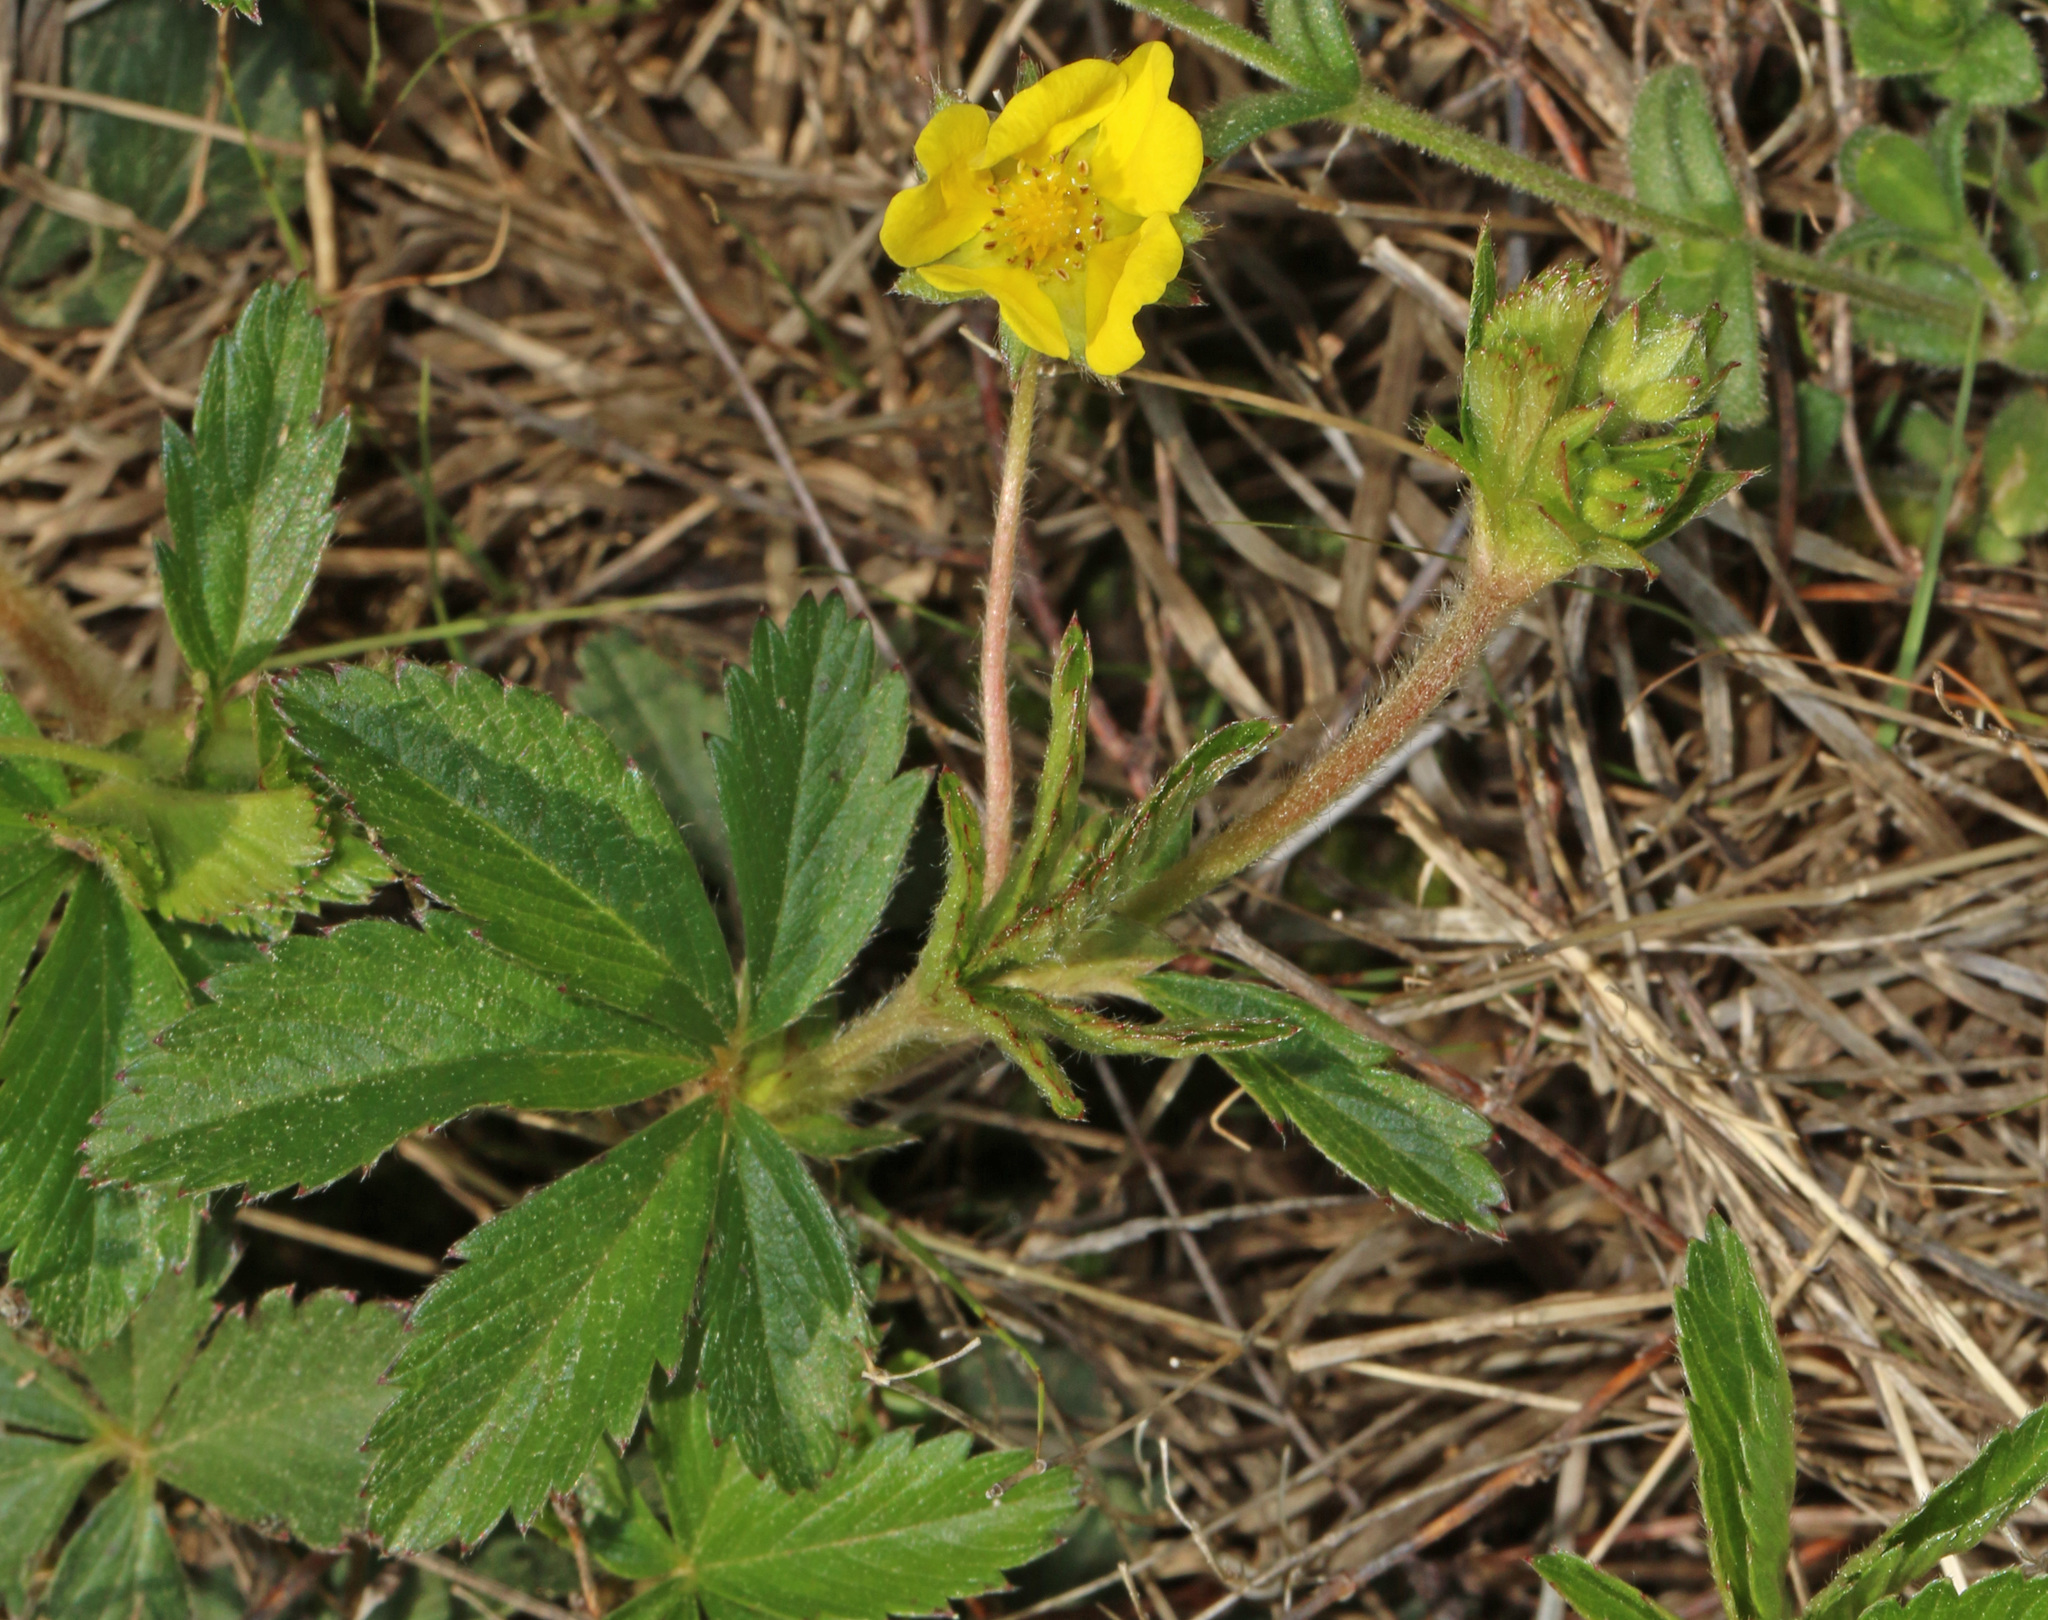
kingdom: Plantae
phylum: Tracheophyta
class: Magnoliopsida
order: Rosales
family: Rosaceae
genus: Potentilla
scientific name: Potentilla simplex
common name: Old field cinquefoil
